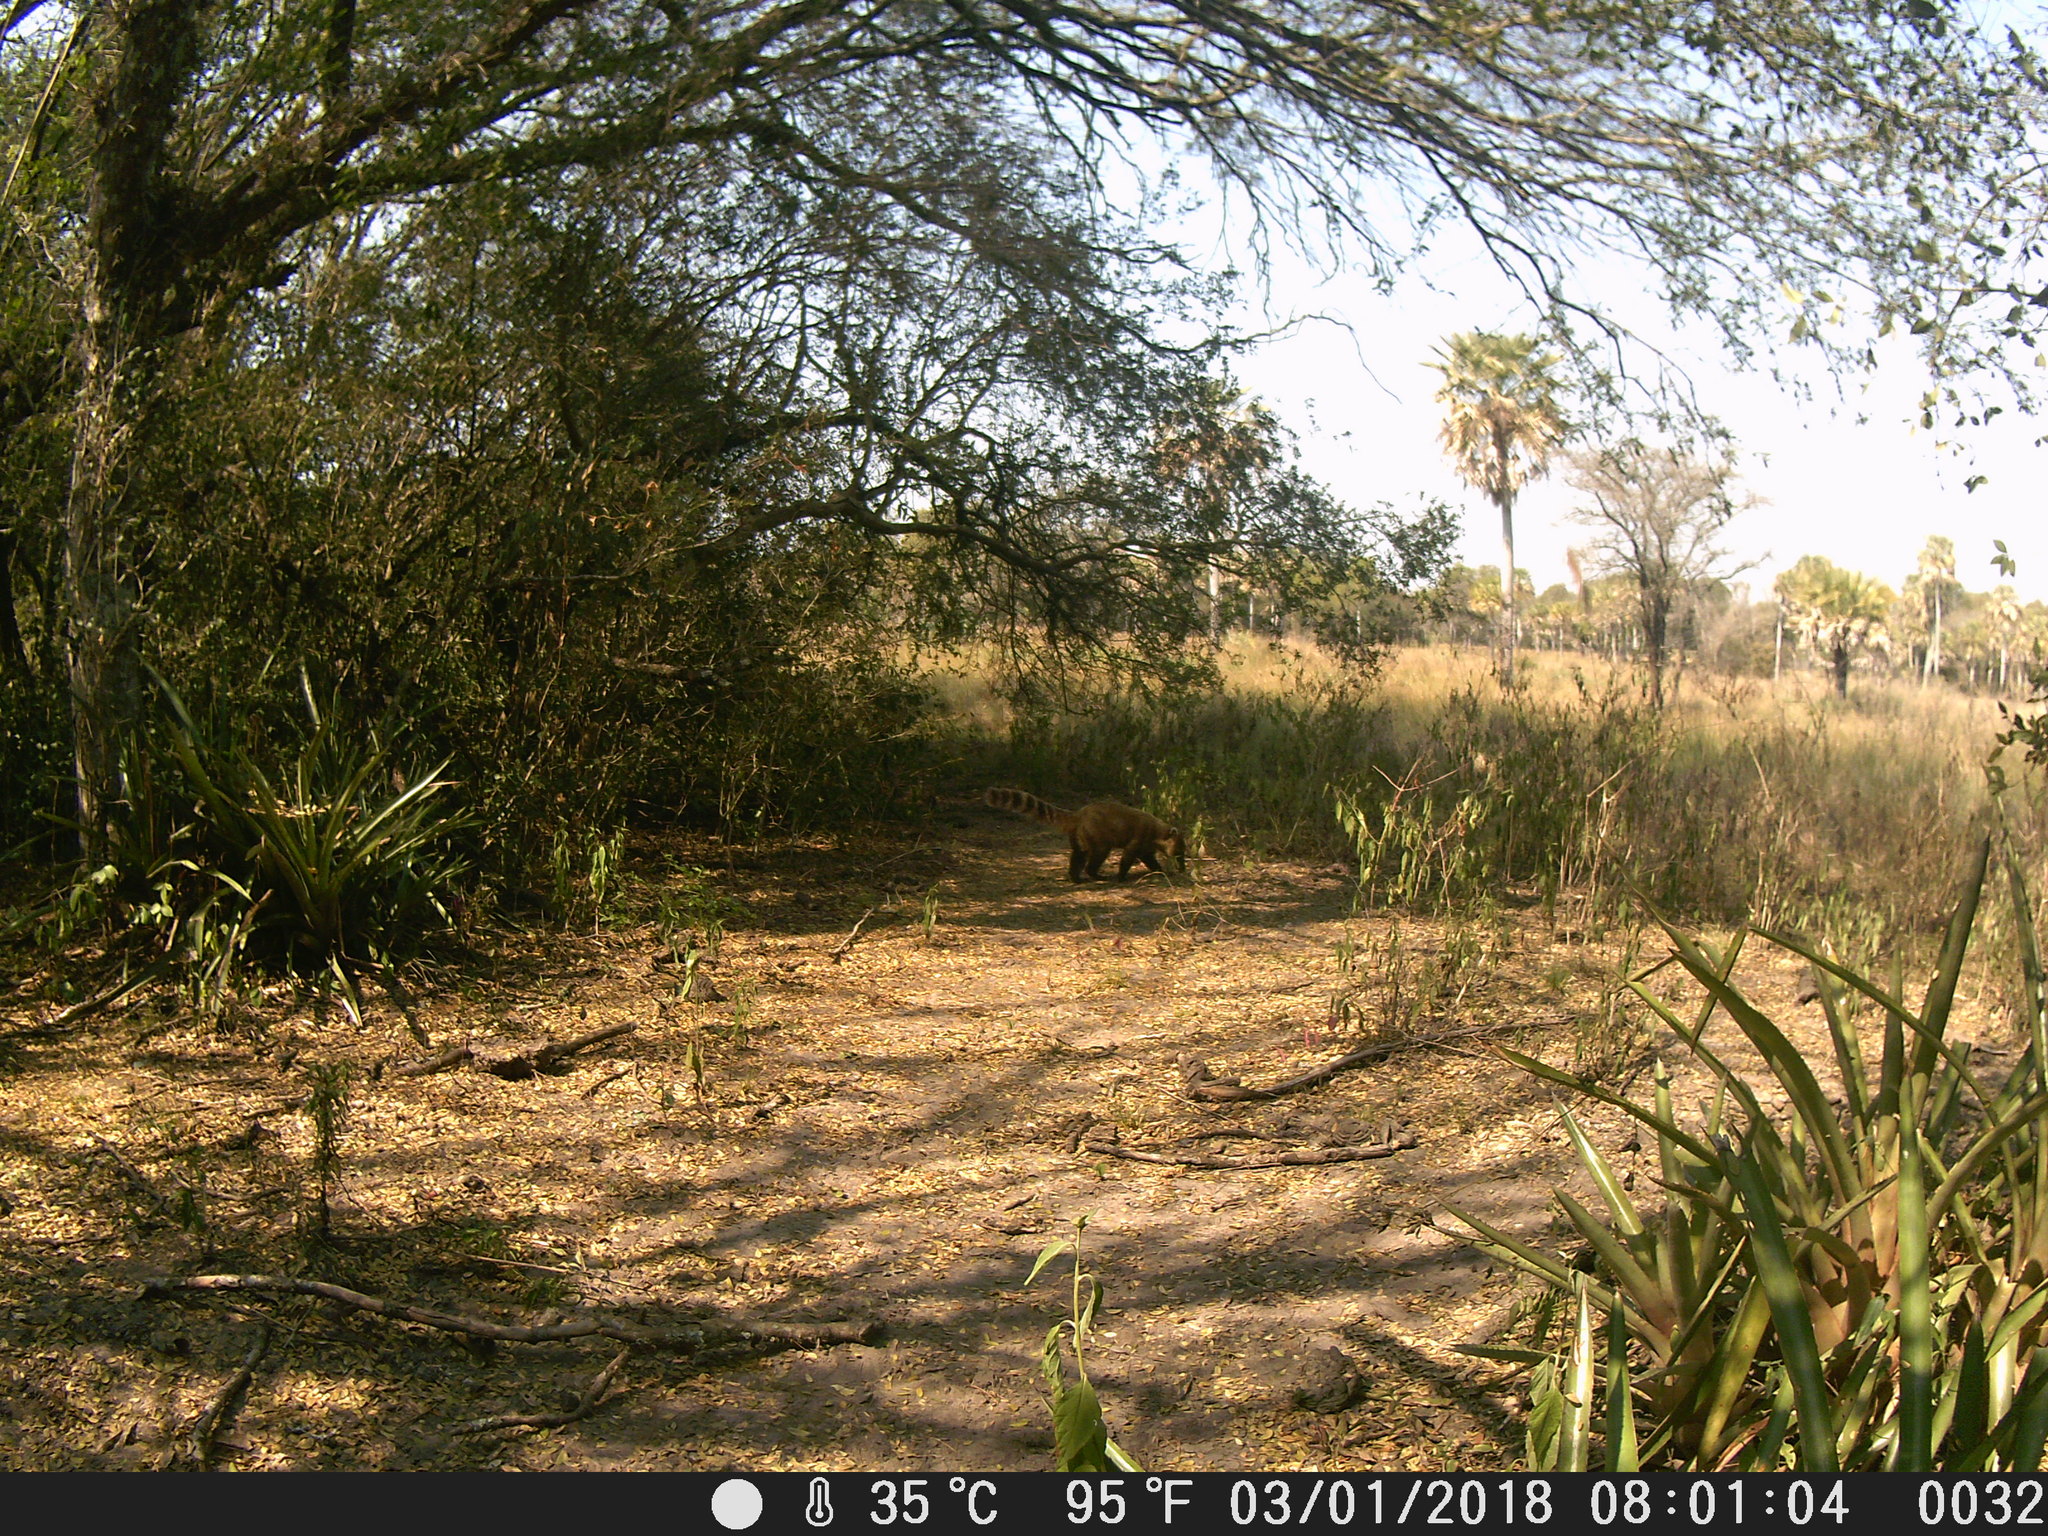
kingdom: Animalia
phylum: Chordata
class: Mammalia
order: Carnivora
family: Procyonidae
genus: Nasua
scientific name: Nasua nasua
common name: South american coati
